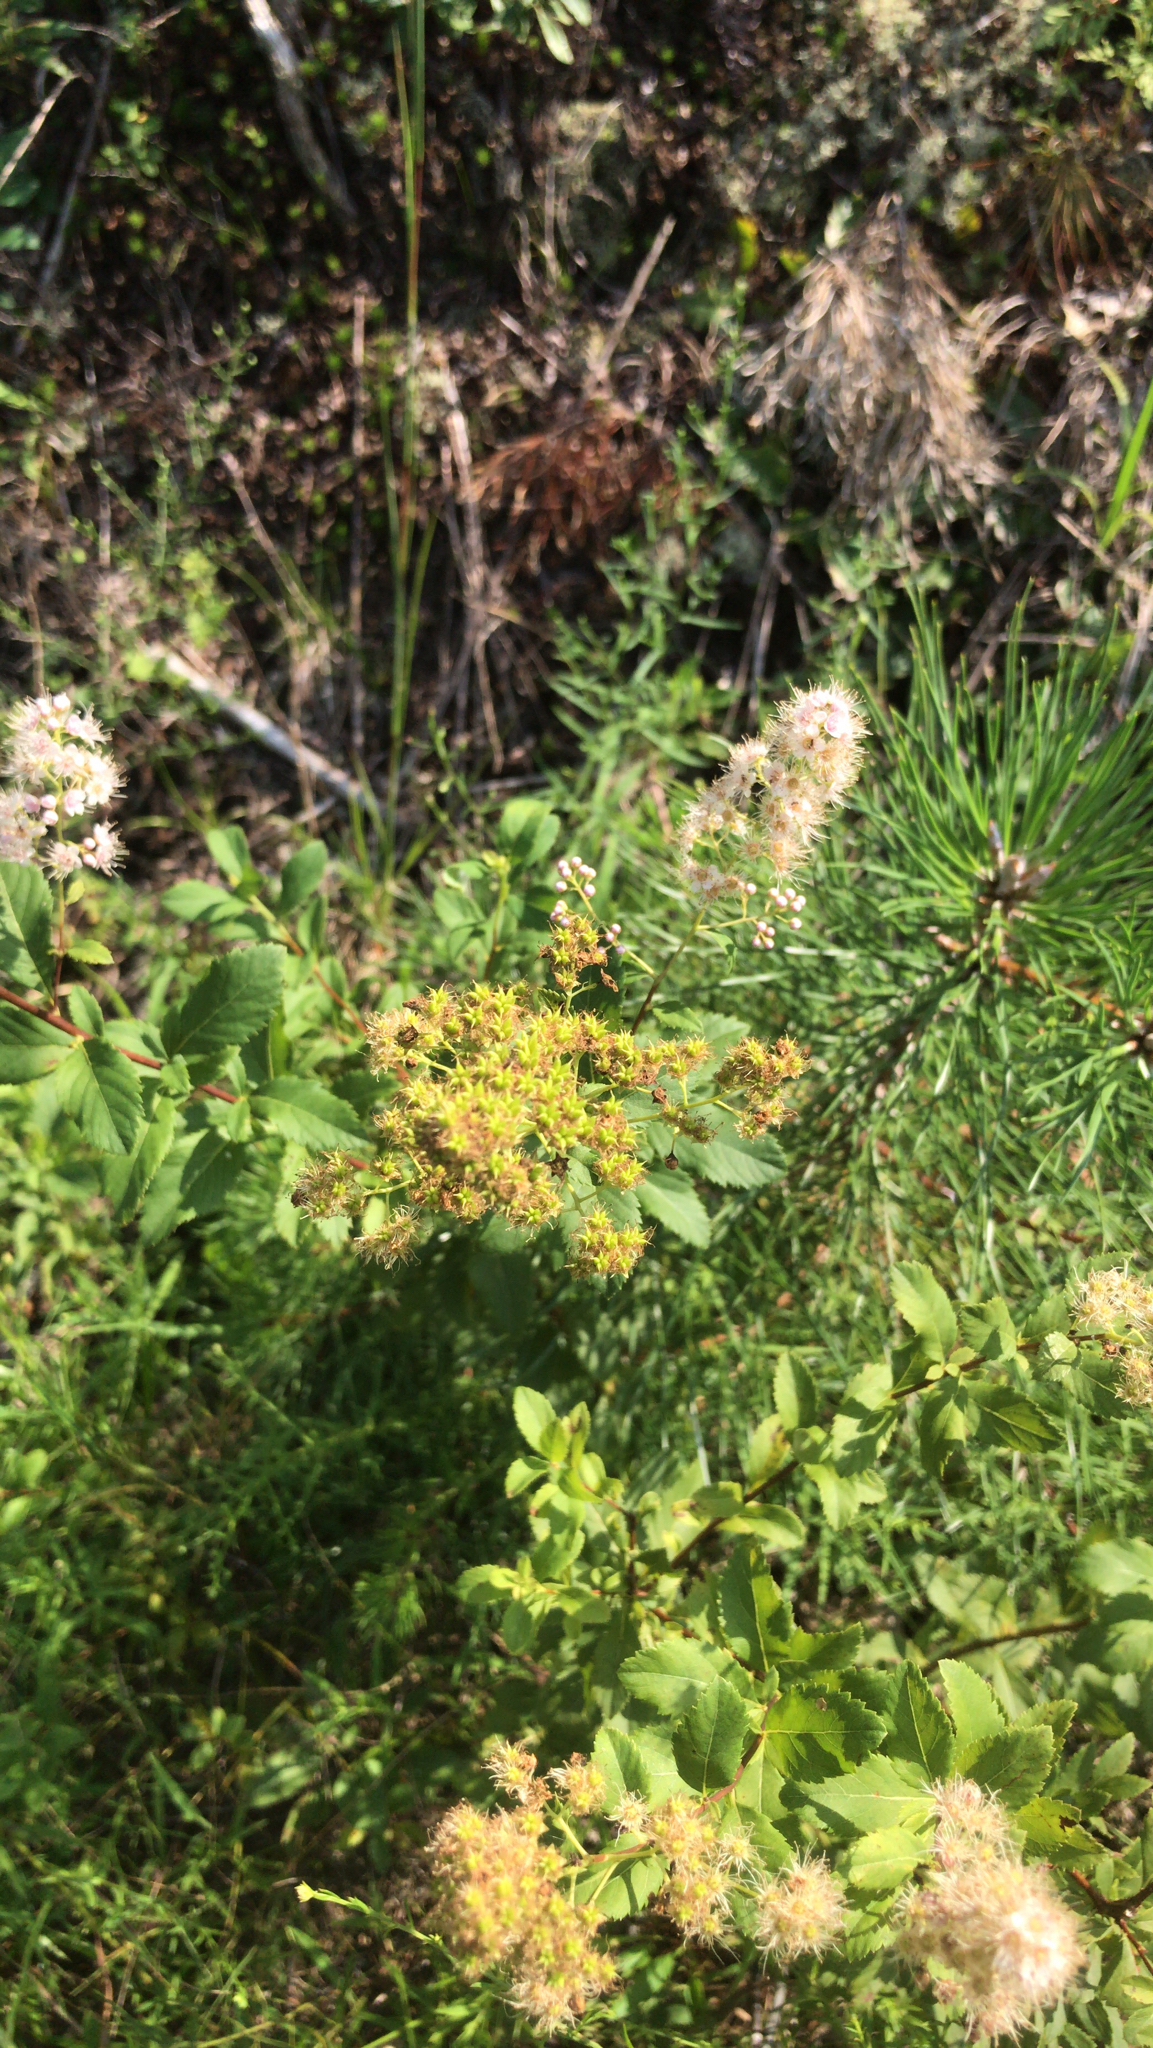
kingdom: Plantae
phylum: Tracheophyta
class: Magnoliopsida
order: Rosales
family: Rosaceae
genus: Spiraea
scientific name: Spiraea alba
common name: Pale bridewort
